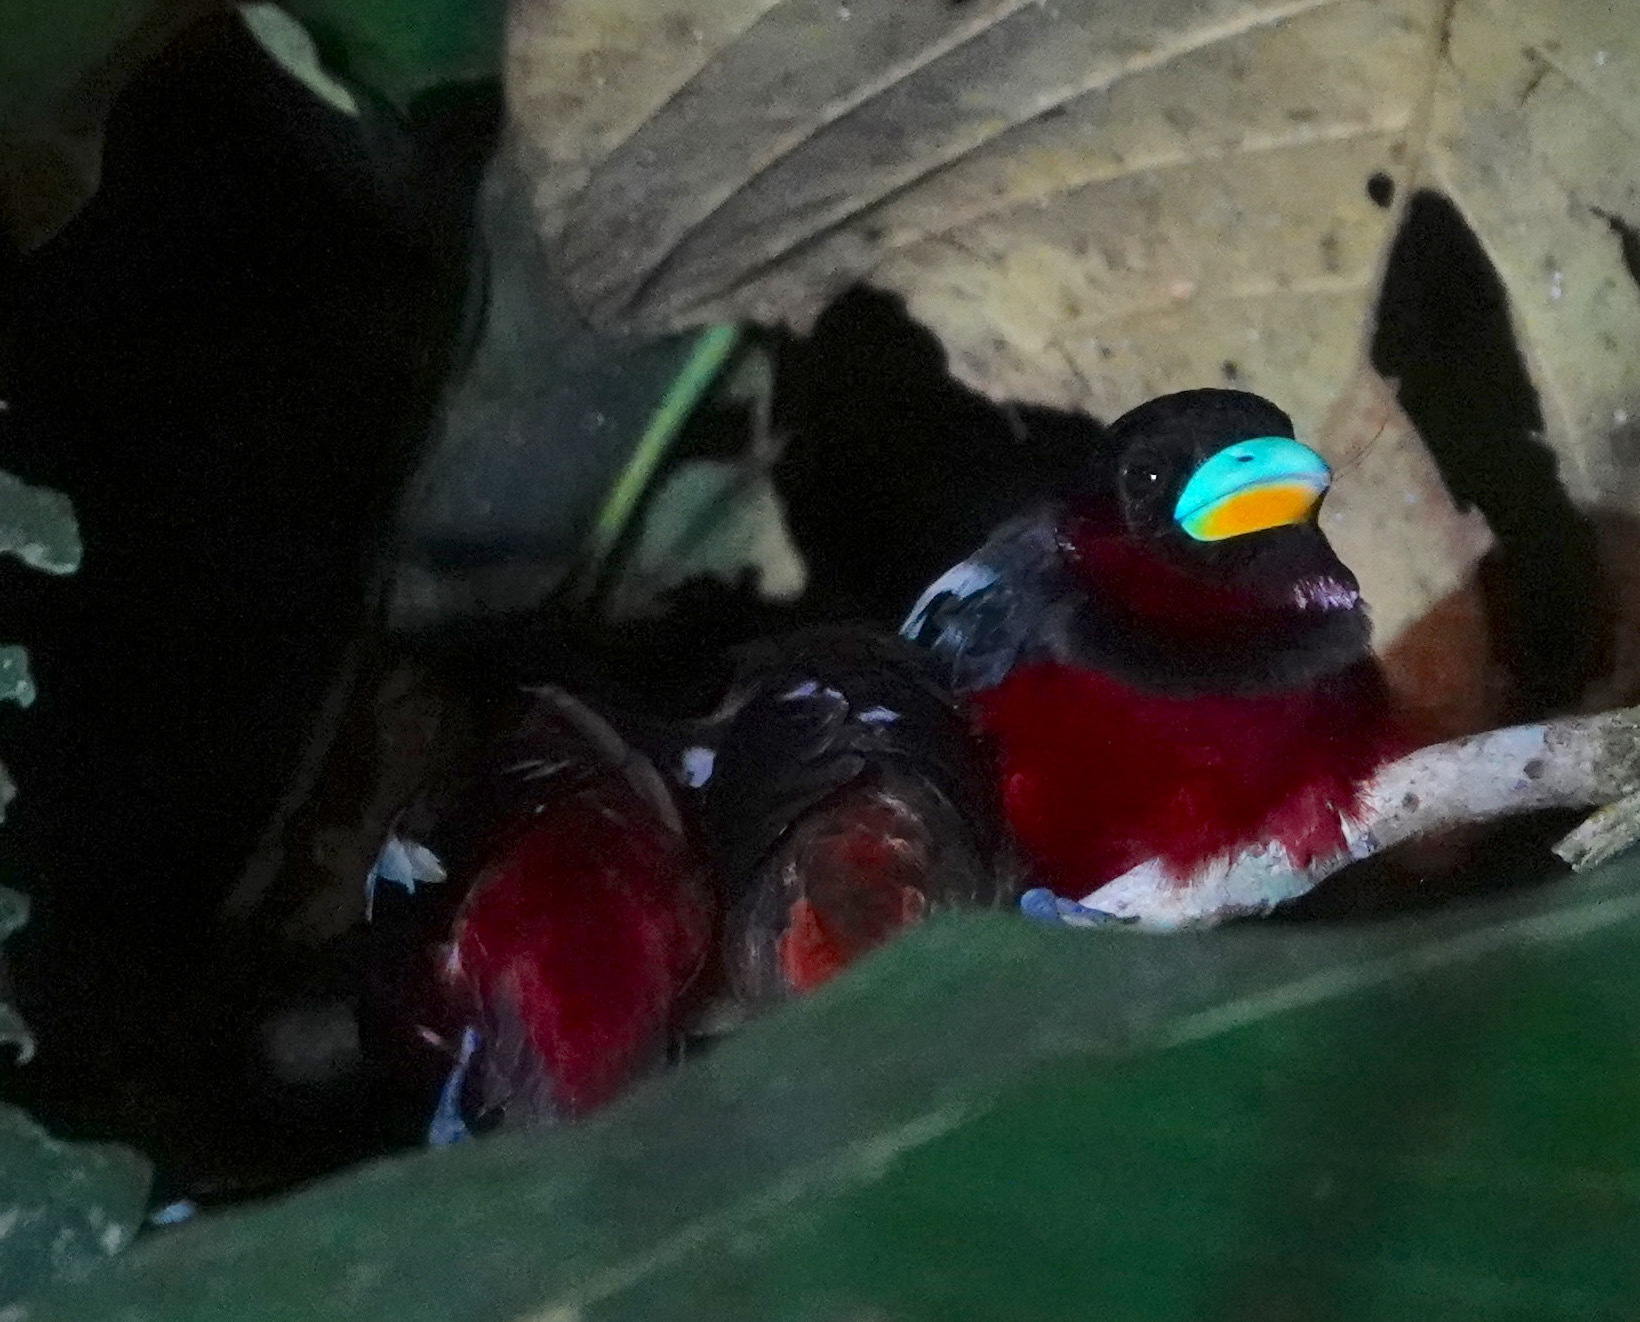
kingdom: Animalia
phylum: Chordata
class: Aves
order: Passeriformes
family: Eurylaimidae
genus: Cymbirhynchus
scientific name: Cymbirhynchus macrorhynchos
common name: Black-and-red broadbill
